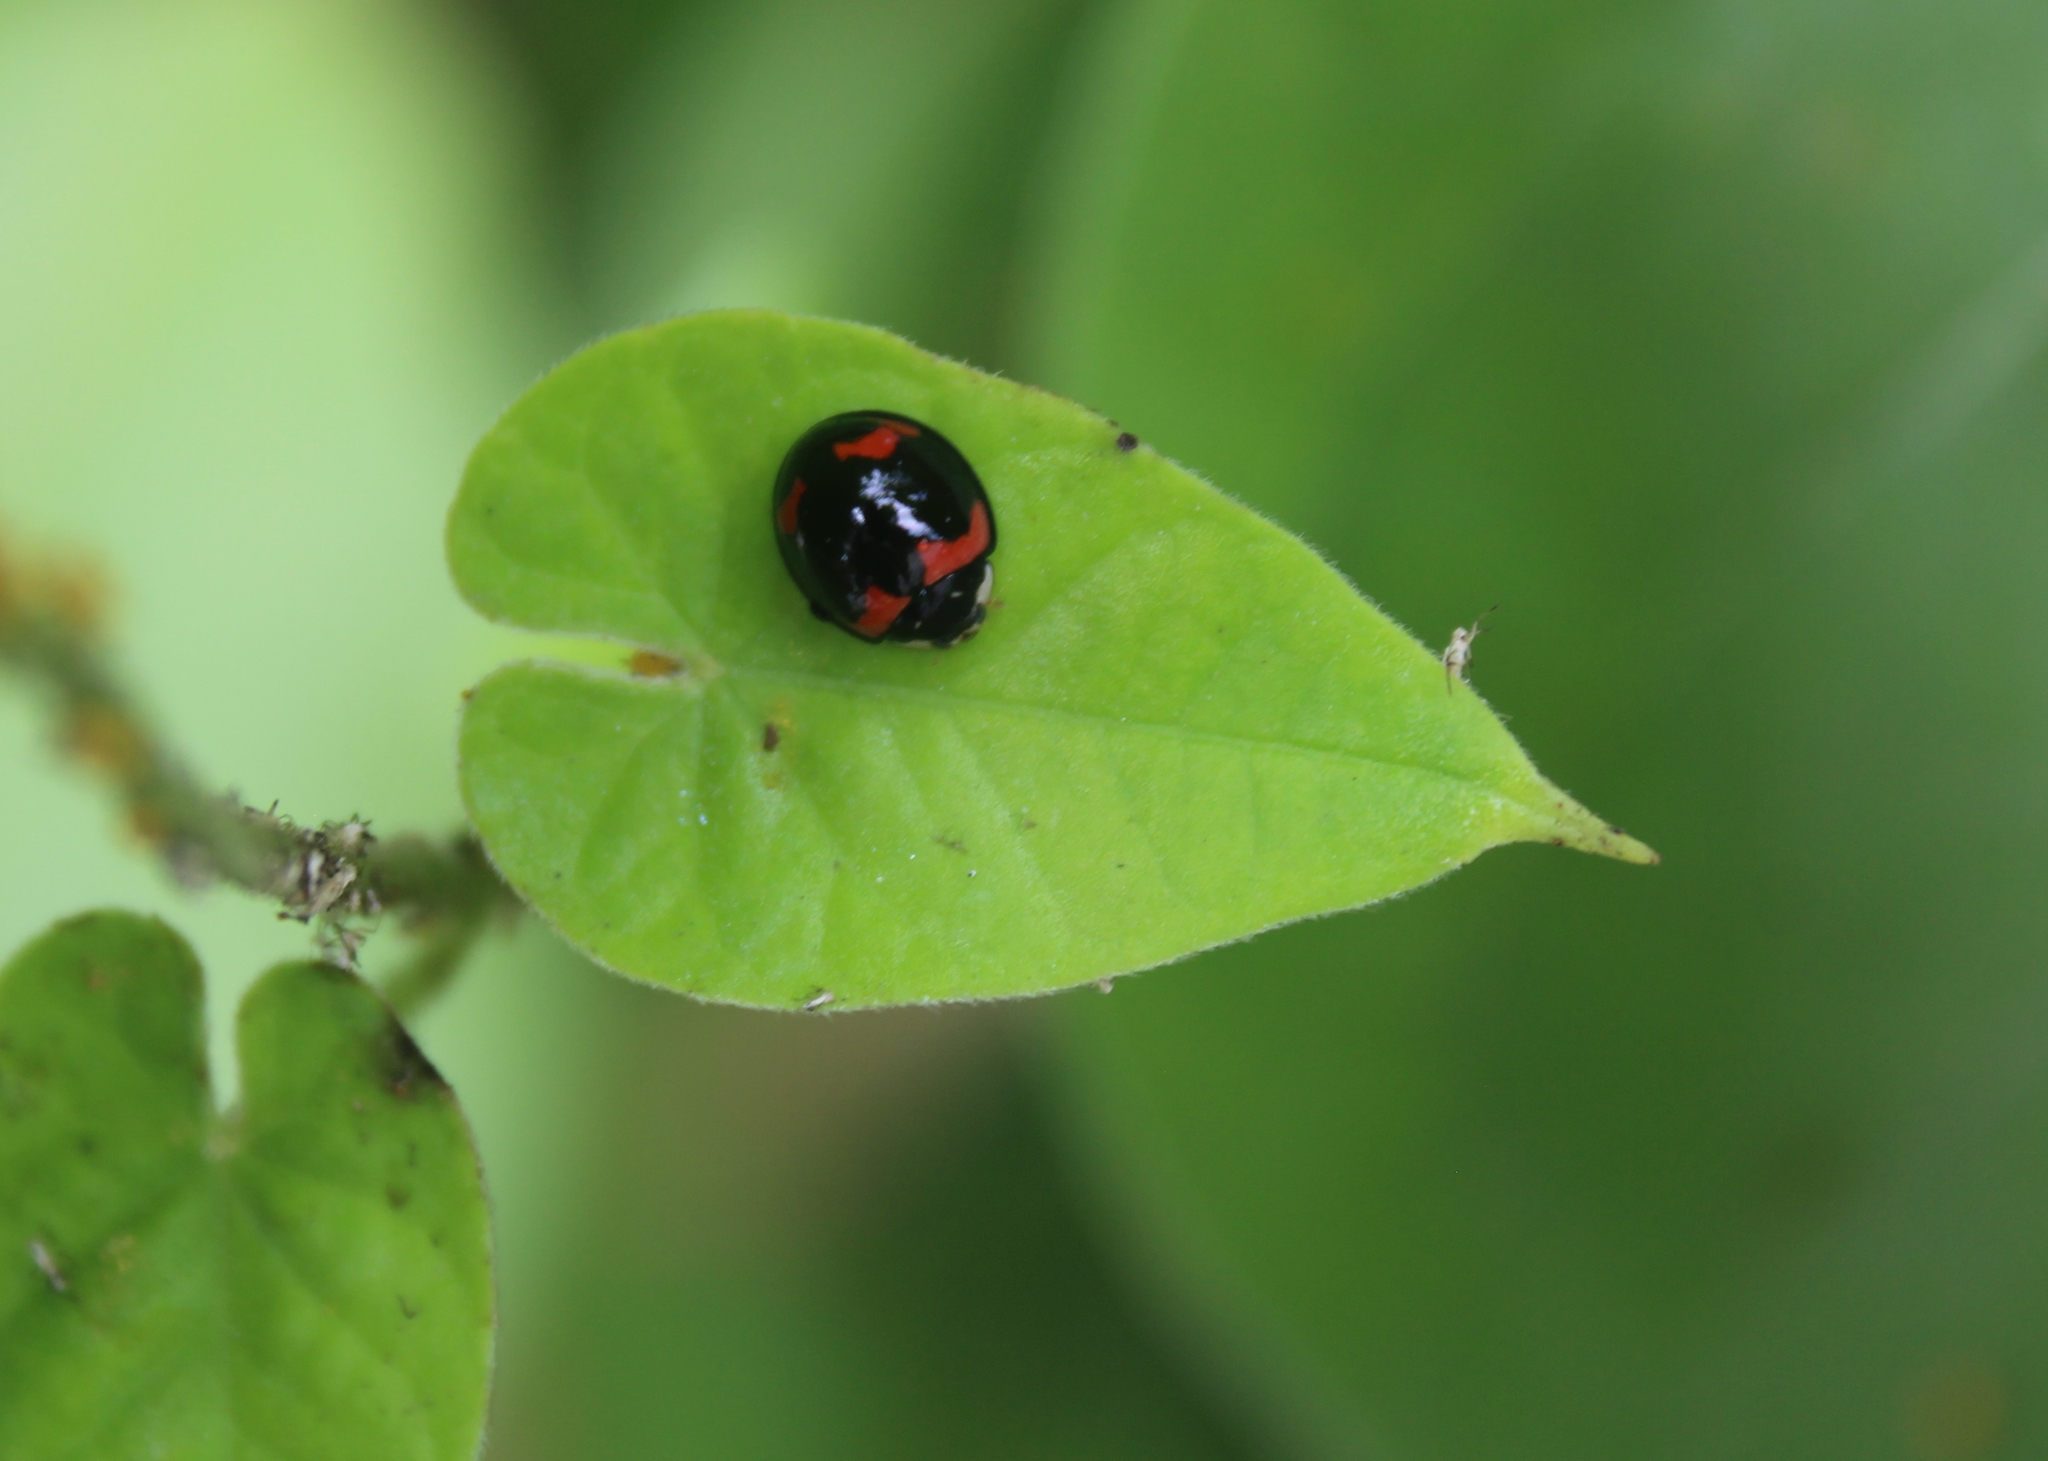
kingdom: Animalia
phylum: Arthropoda
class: Insecta
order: Coleoptera
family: Coccinellidae
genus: Cheilomenes
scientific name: Cheilomenes sexmaculata
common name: Ladybird beetle
